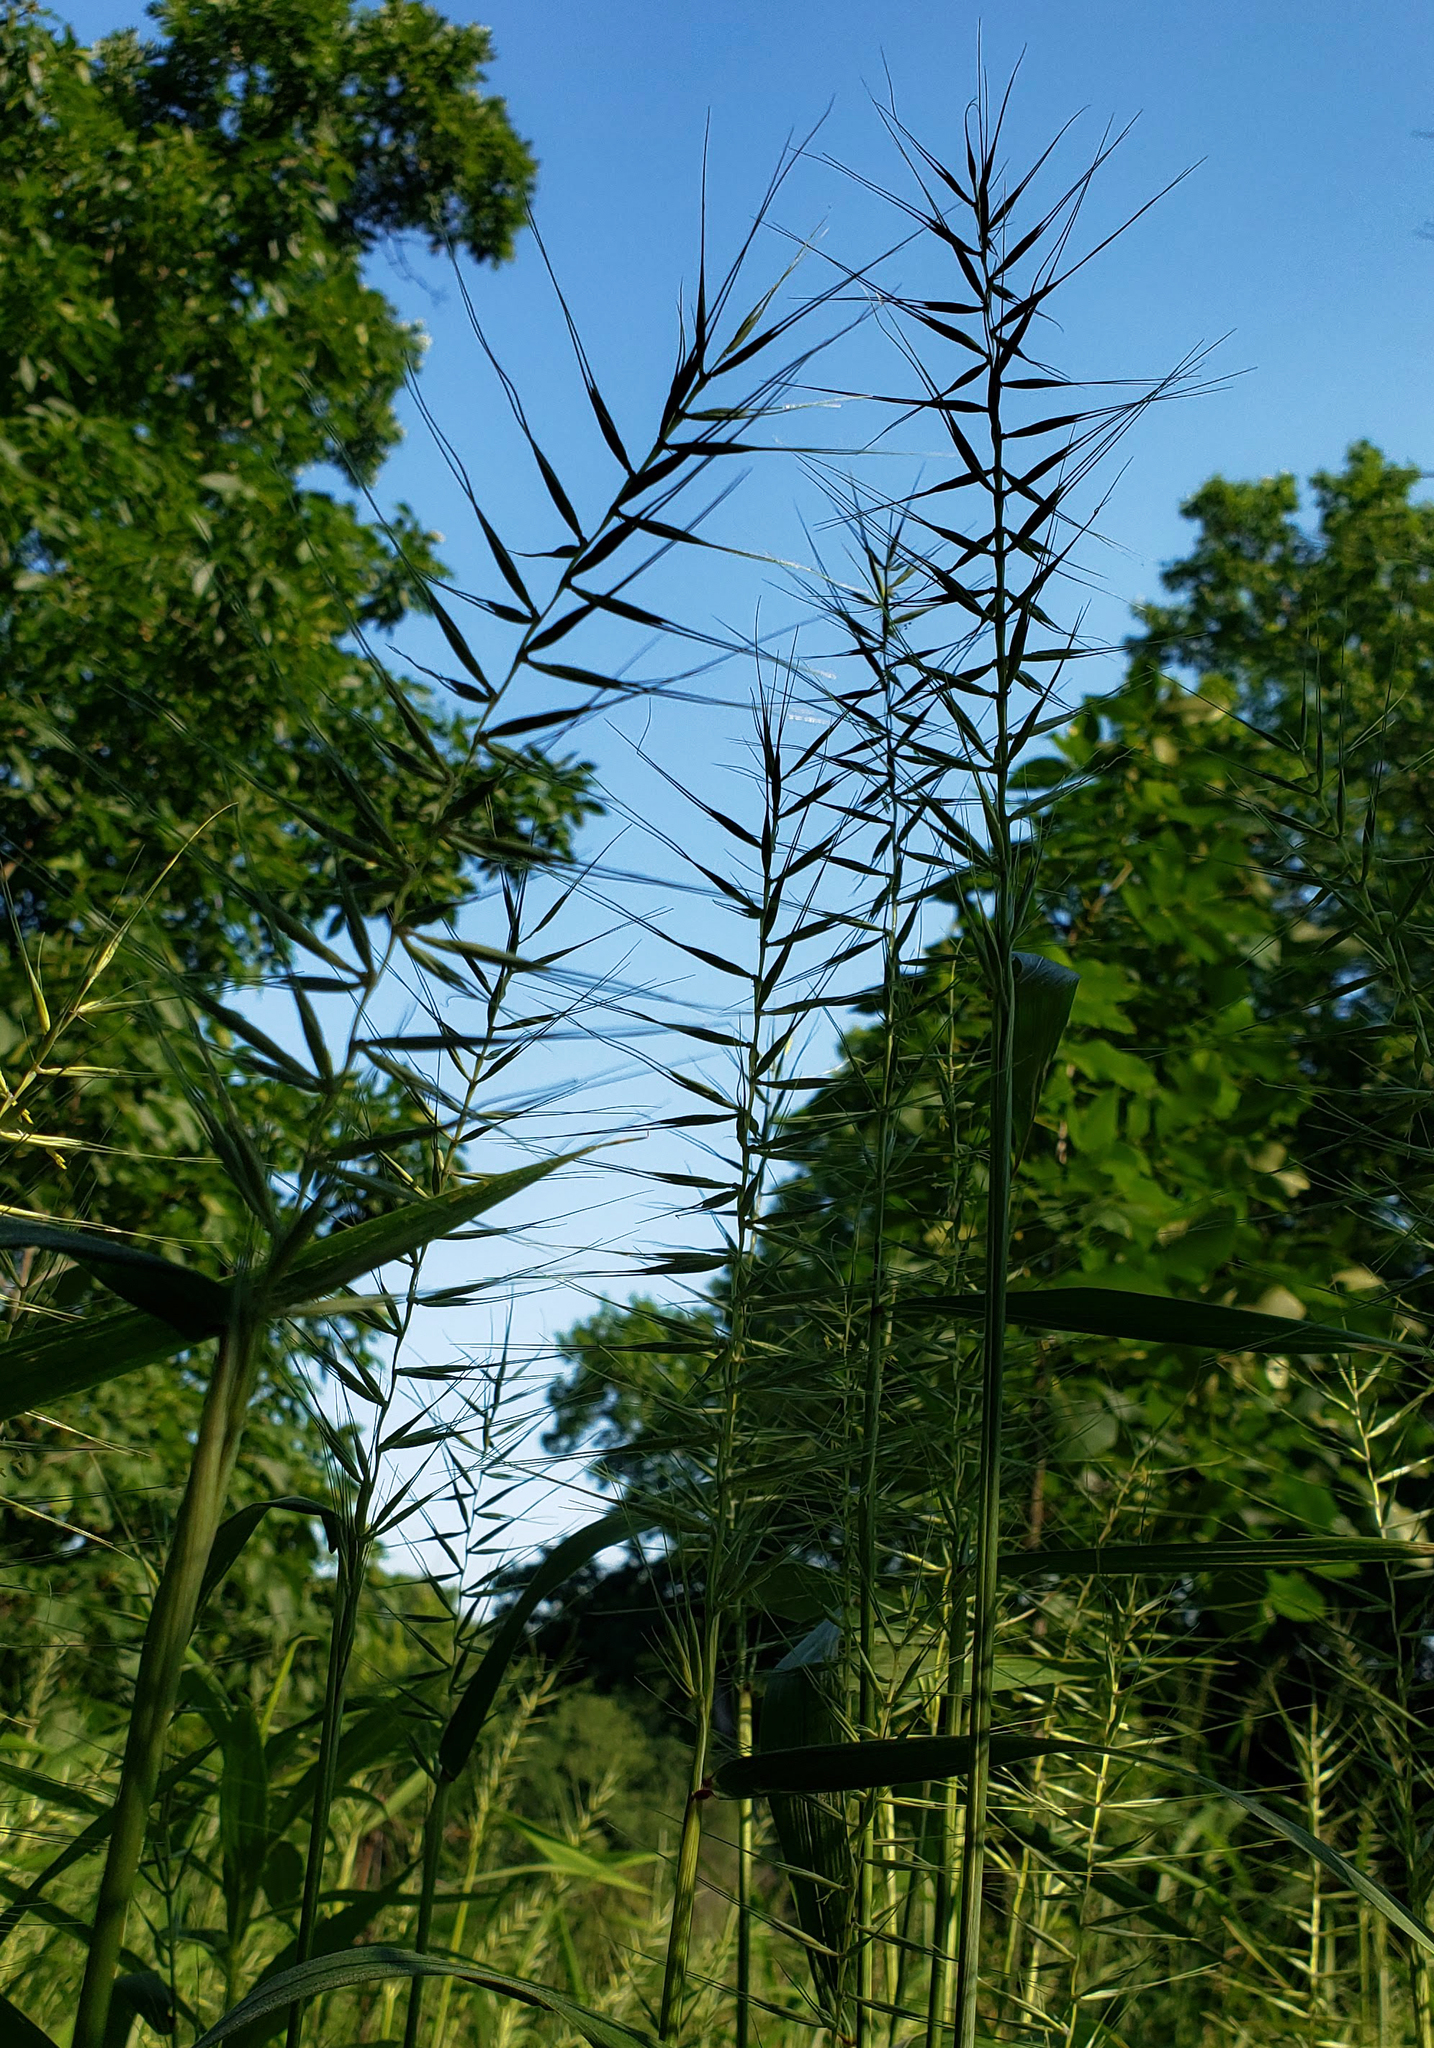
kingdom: Plantae
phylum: Tracheophyta
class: Liliopsida
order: Poales
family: Poaceae
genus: Elymus
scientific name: Elymus hystrix
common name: Bottlebrush grass
